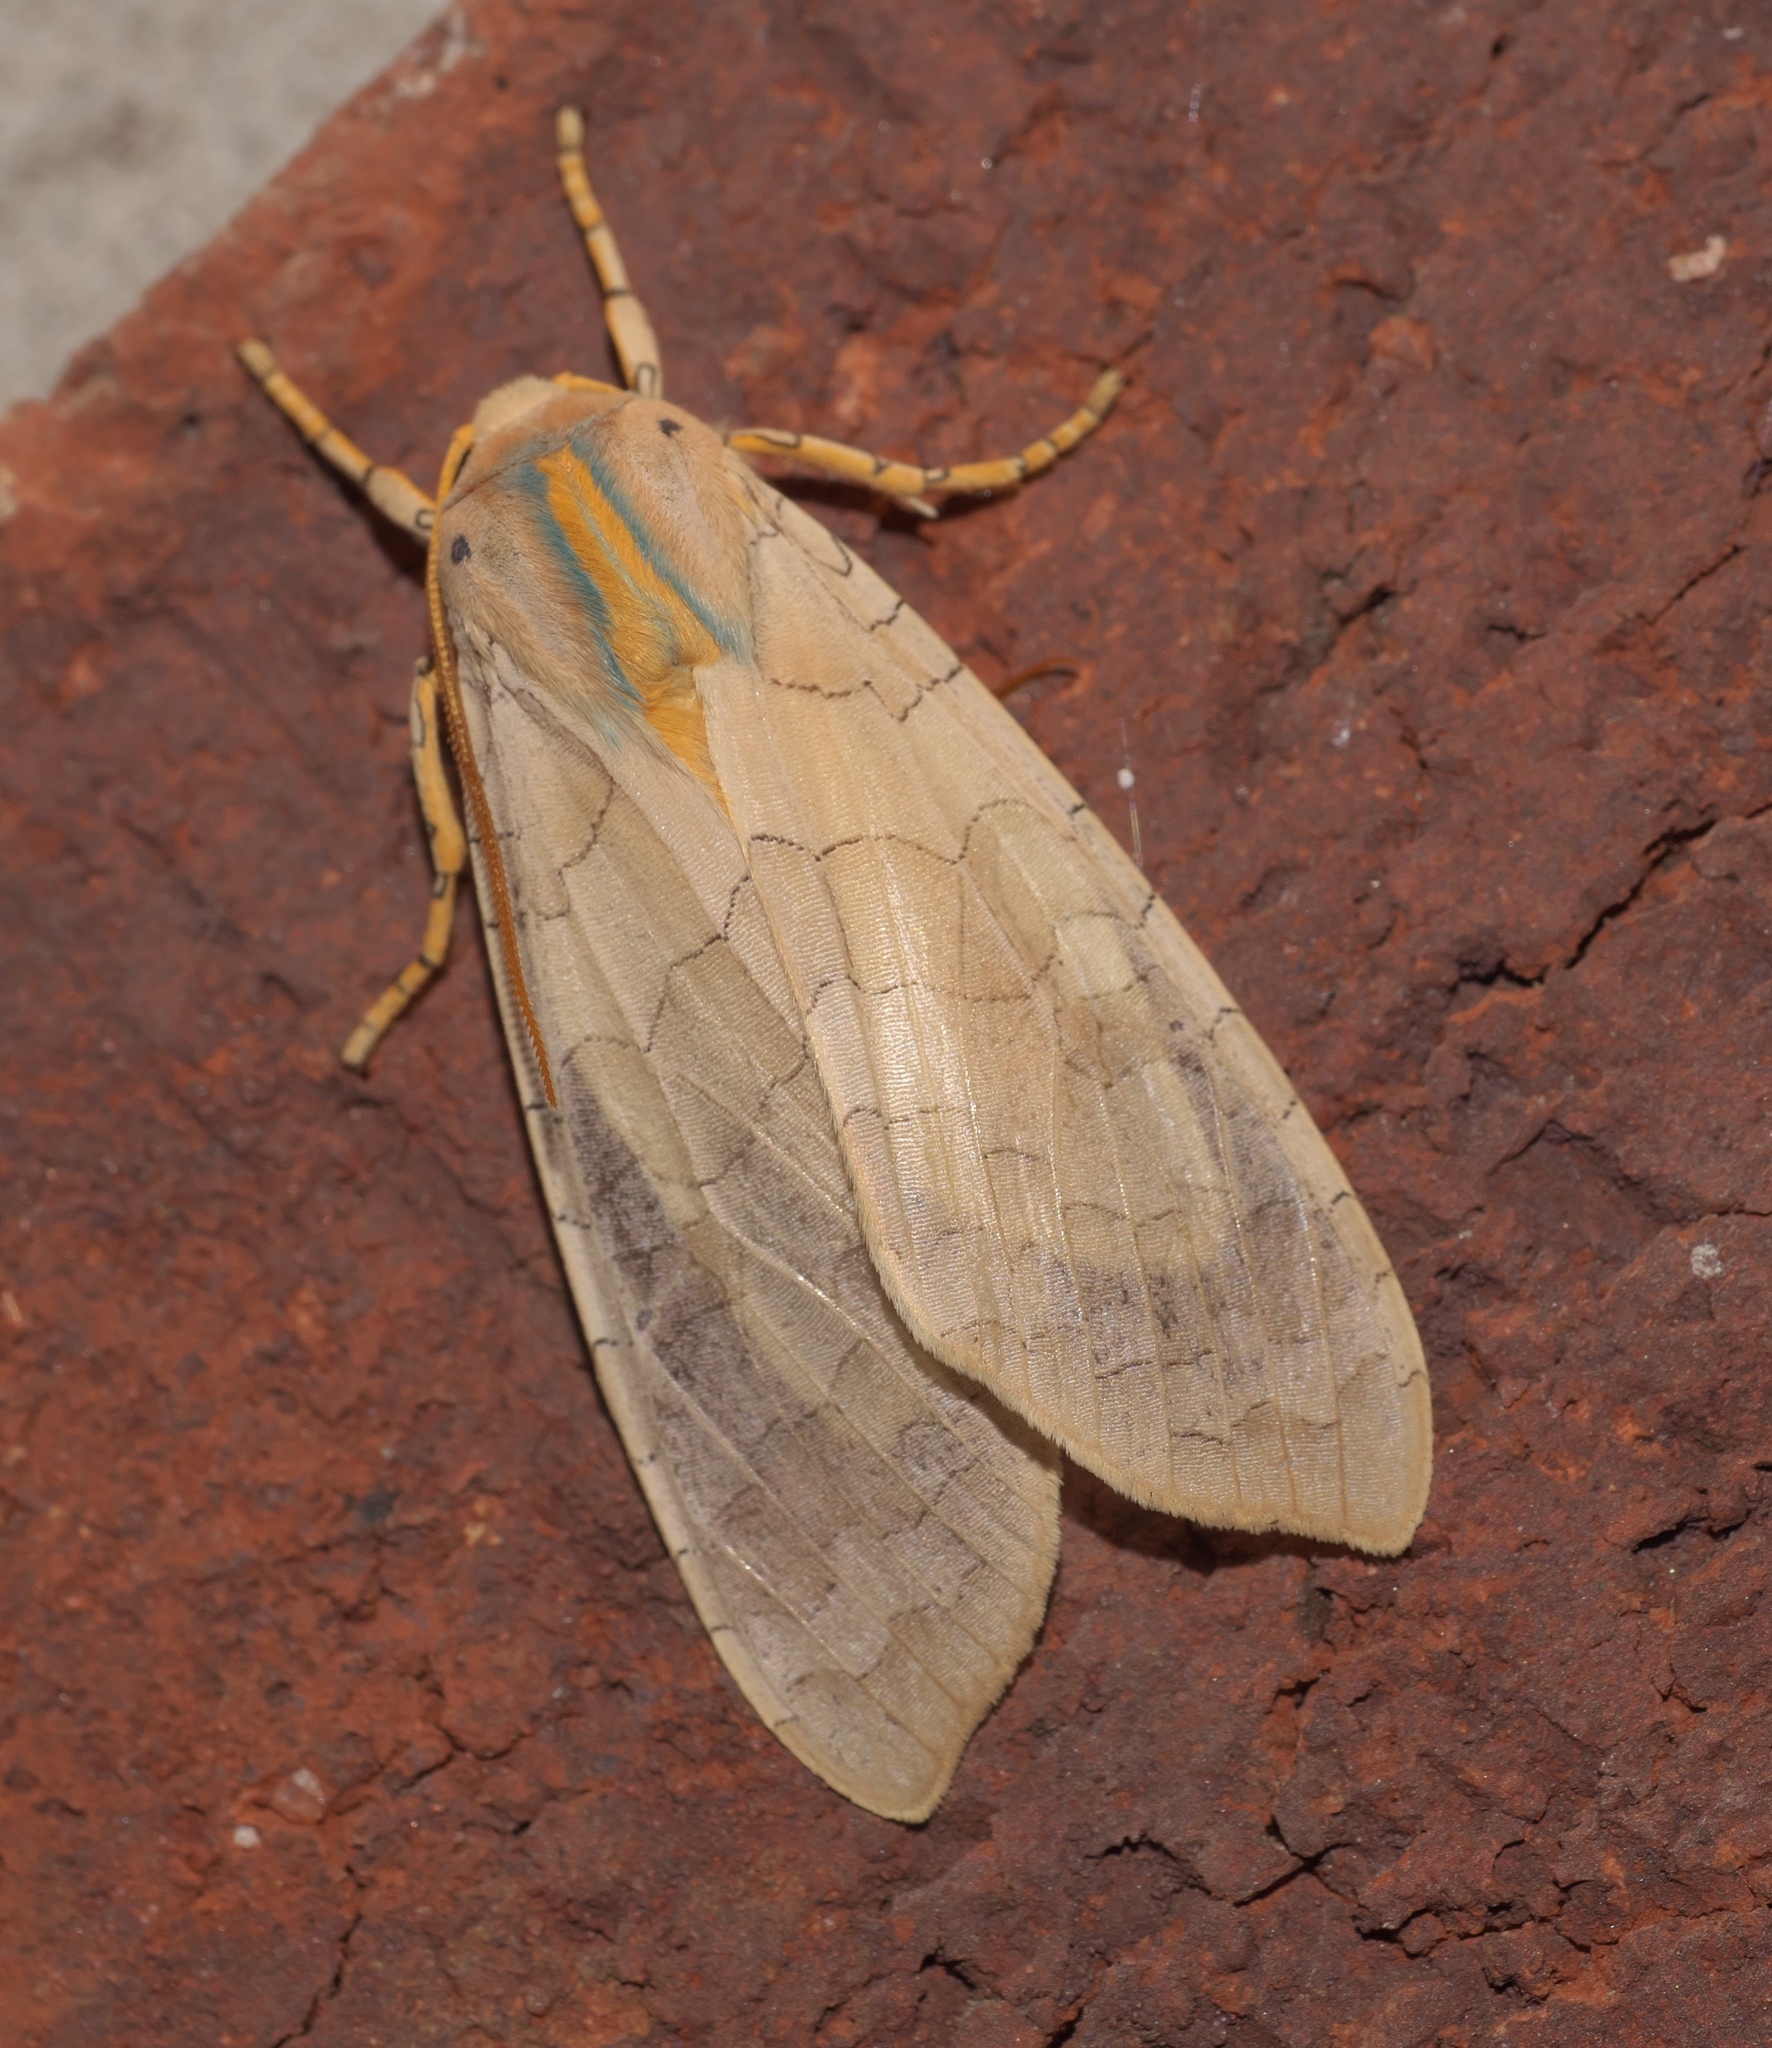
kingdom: Animalia
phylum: Arthropoda
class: Insecta
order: Lepidoptera
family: Erebidae
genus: Halysidota
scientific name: Halysidota
